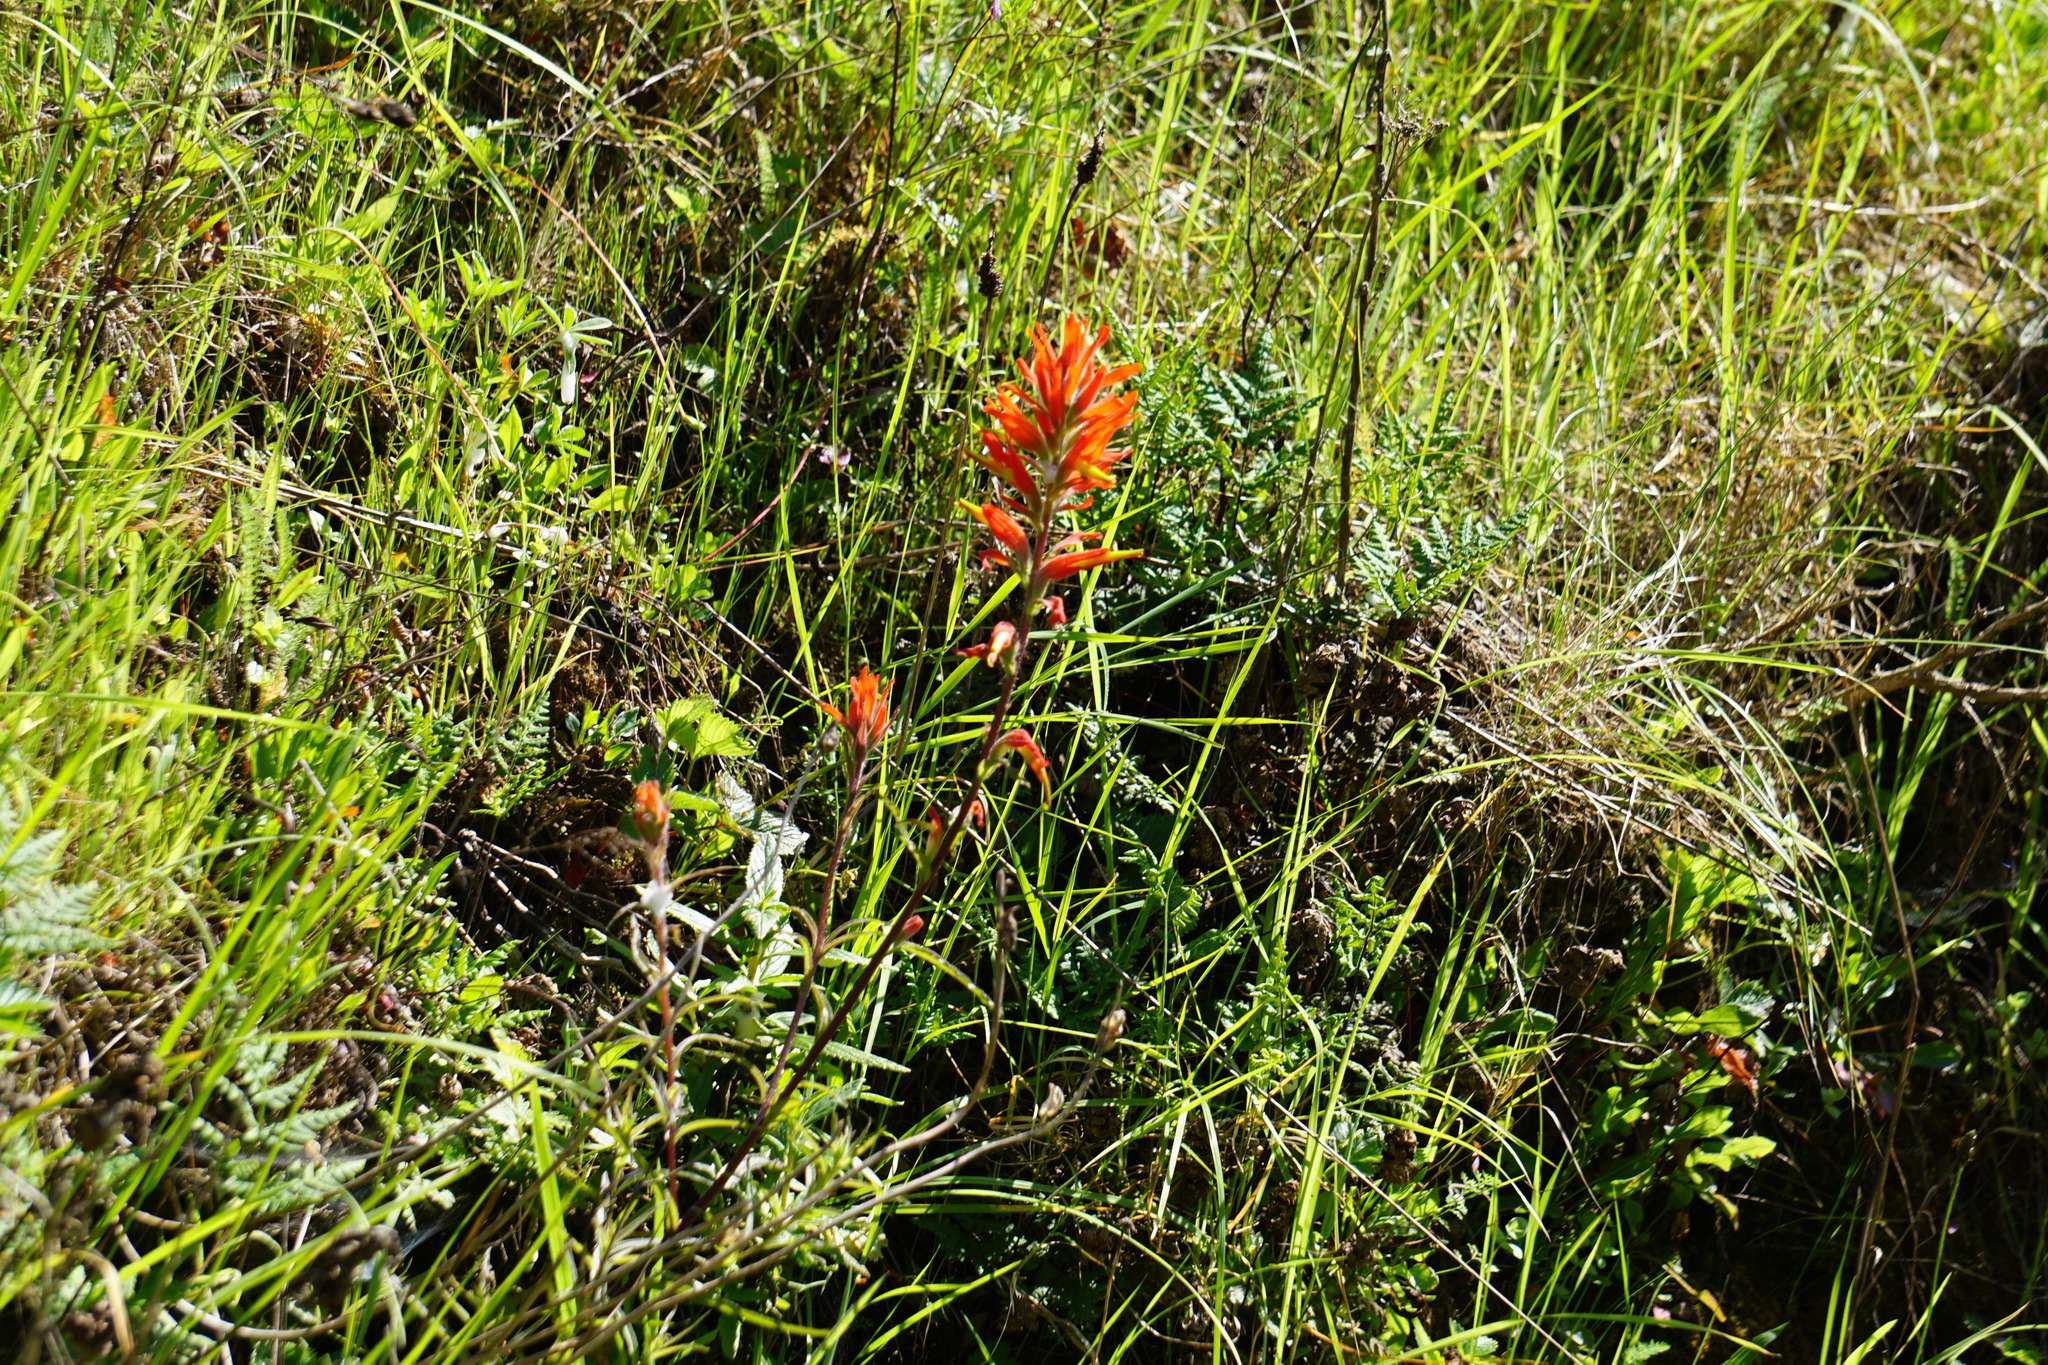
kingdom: Plantae
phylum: Tracheophyta
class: Magnoliopsida
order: Lamiales
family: Orobanchaceae
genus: Castilleja
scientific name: Castilleja subinclusa
